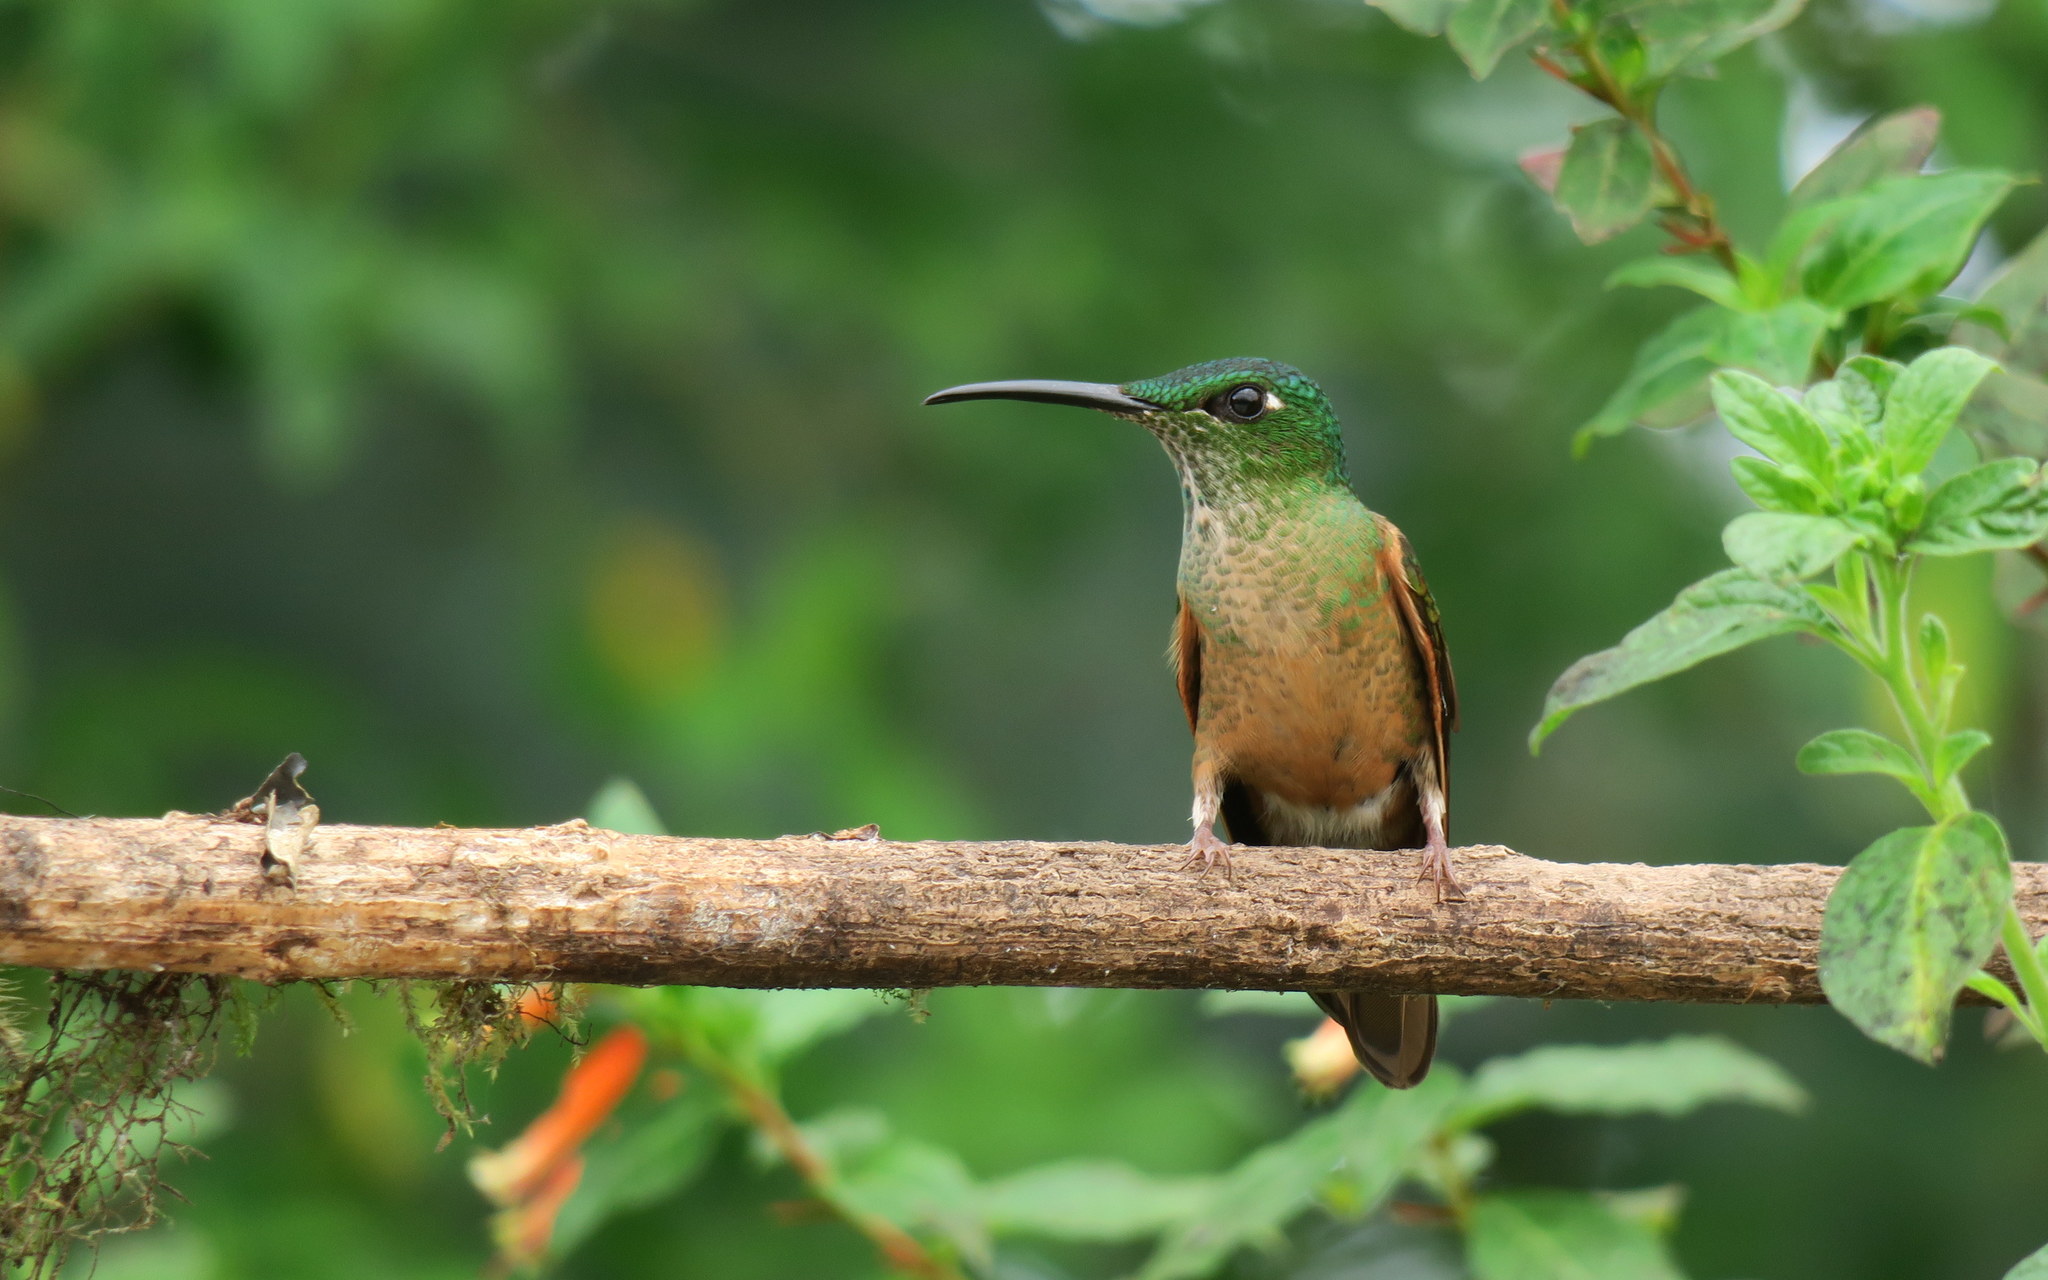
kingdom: Animalia
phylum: Chordata
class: Aves
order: Apodiformes
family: Trochilidae
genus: Heliodoxa
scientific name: Heliodoxa rubinoides
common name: Fawn-breasted brilliant
